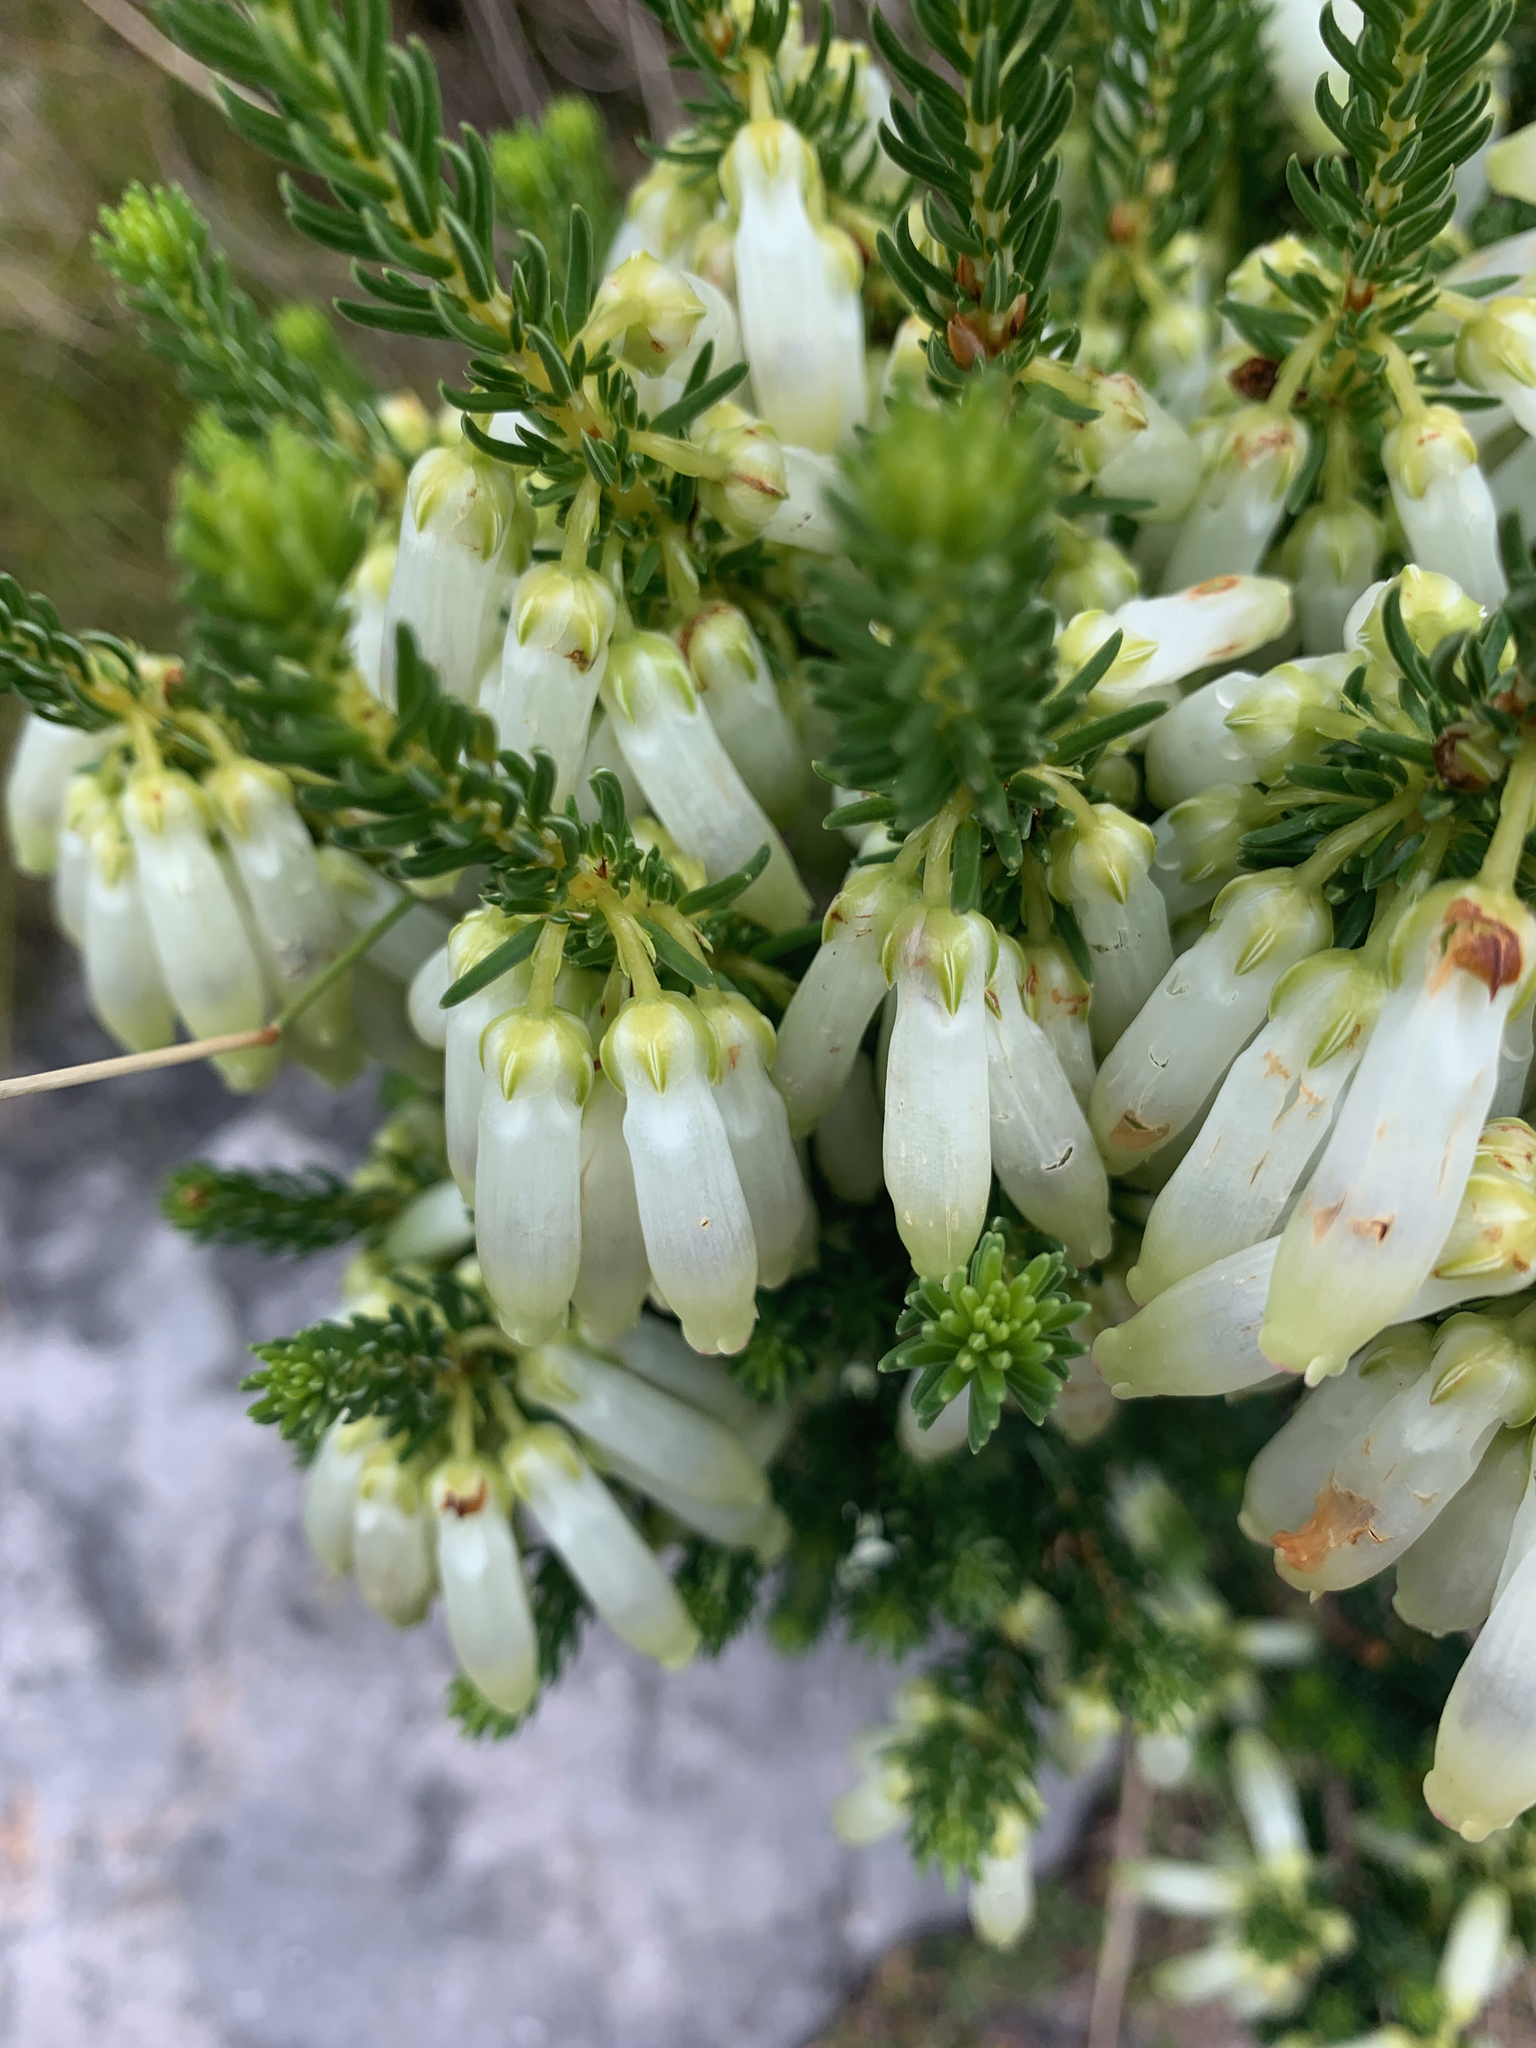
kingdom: Plantae
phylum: Tracheophyta
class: Magnoliopsida
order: Ericales
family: Ericaceae
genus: Erica
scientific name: Erica mammosa
